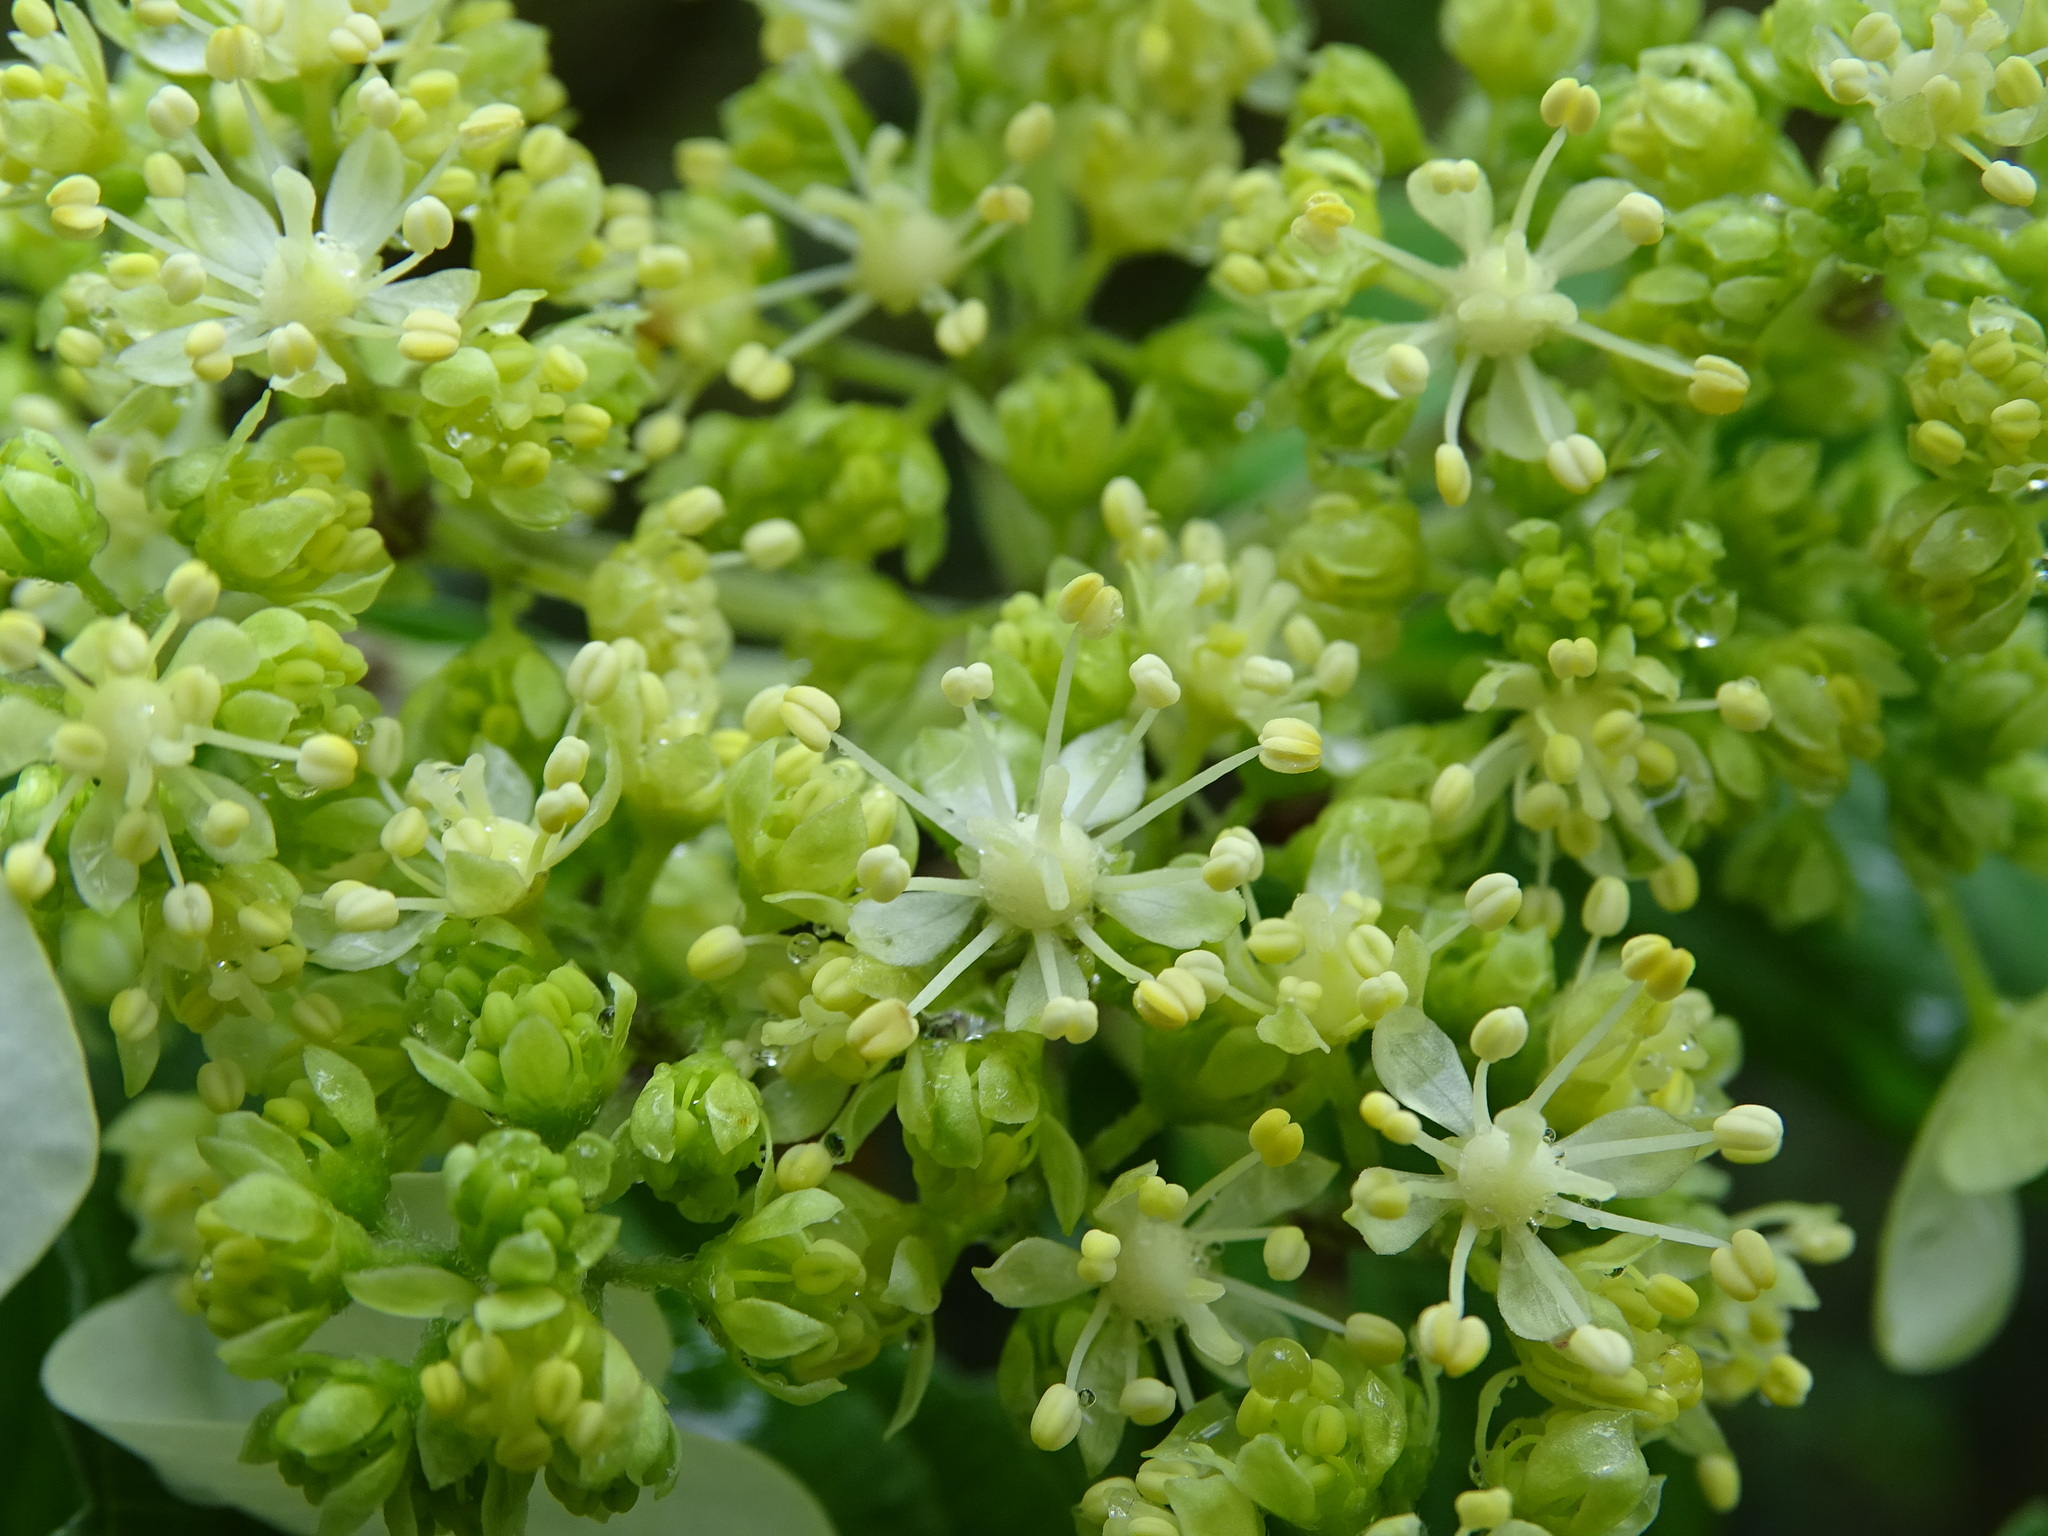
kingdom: Plantae
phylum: Tracheophyta
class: Magnoliopsida
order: Cornales
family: Hydrangeaceae
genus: Hydrangea
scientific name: Hydrangea chinensis
